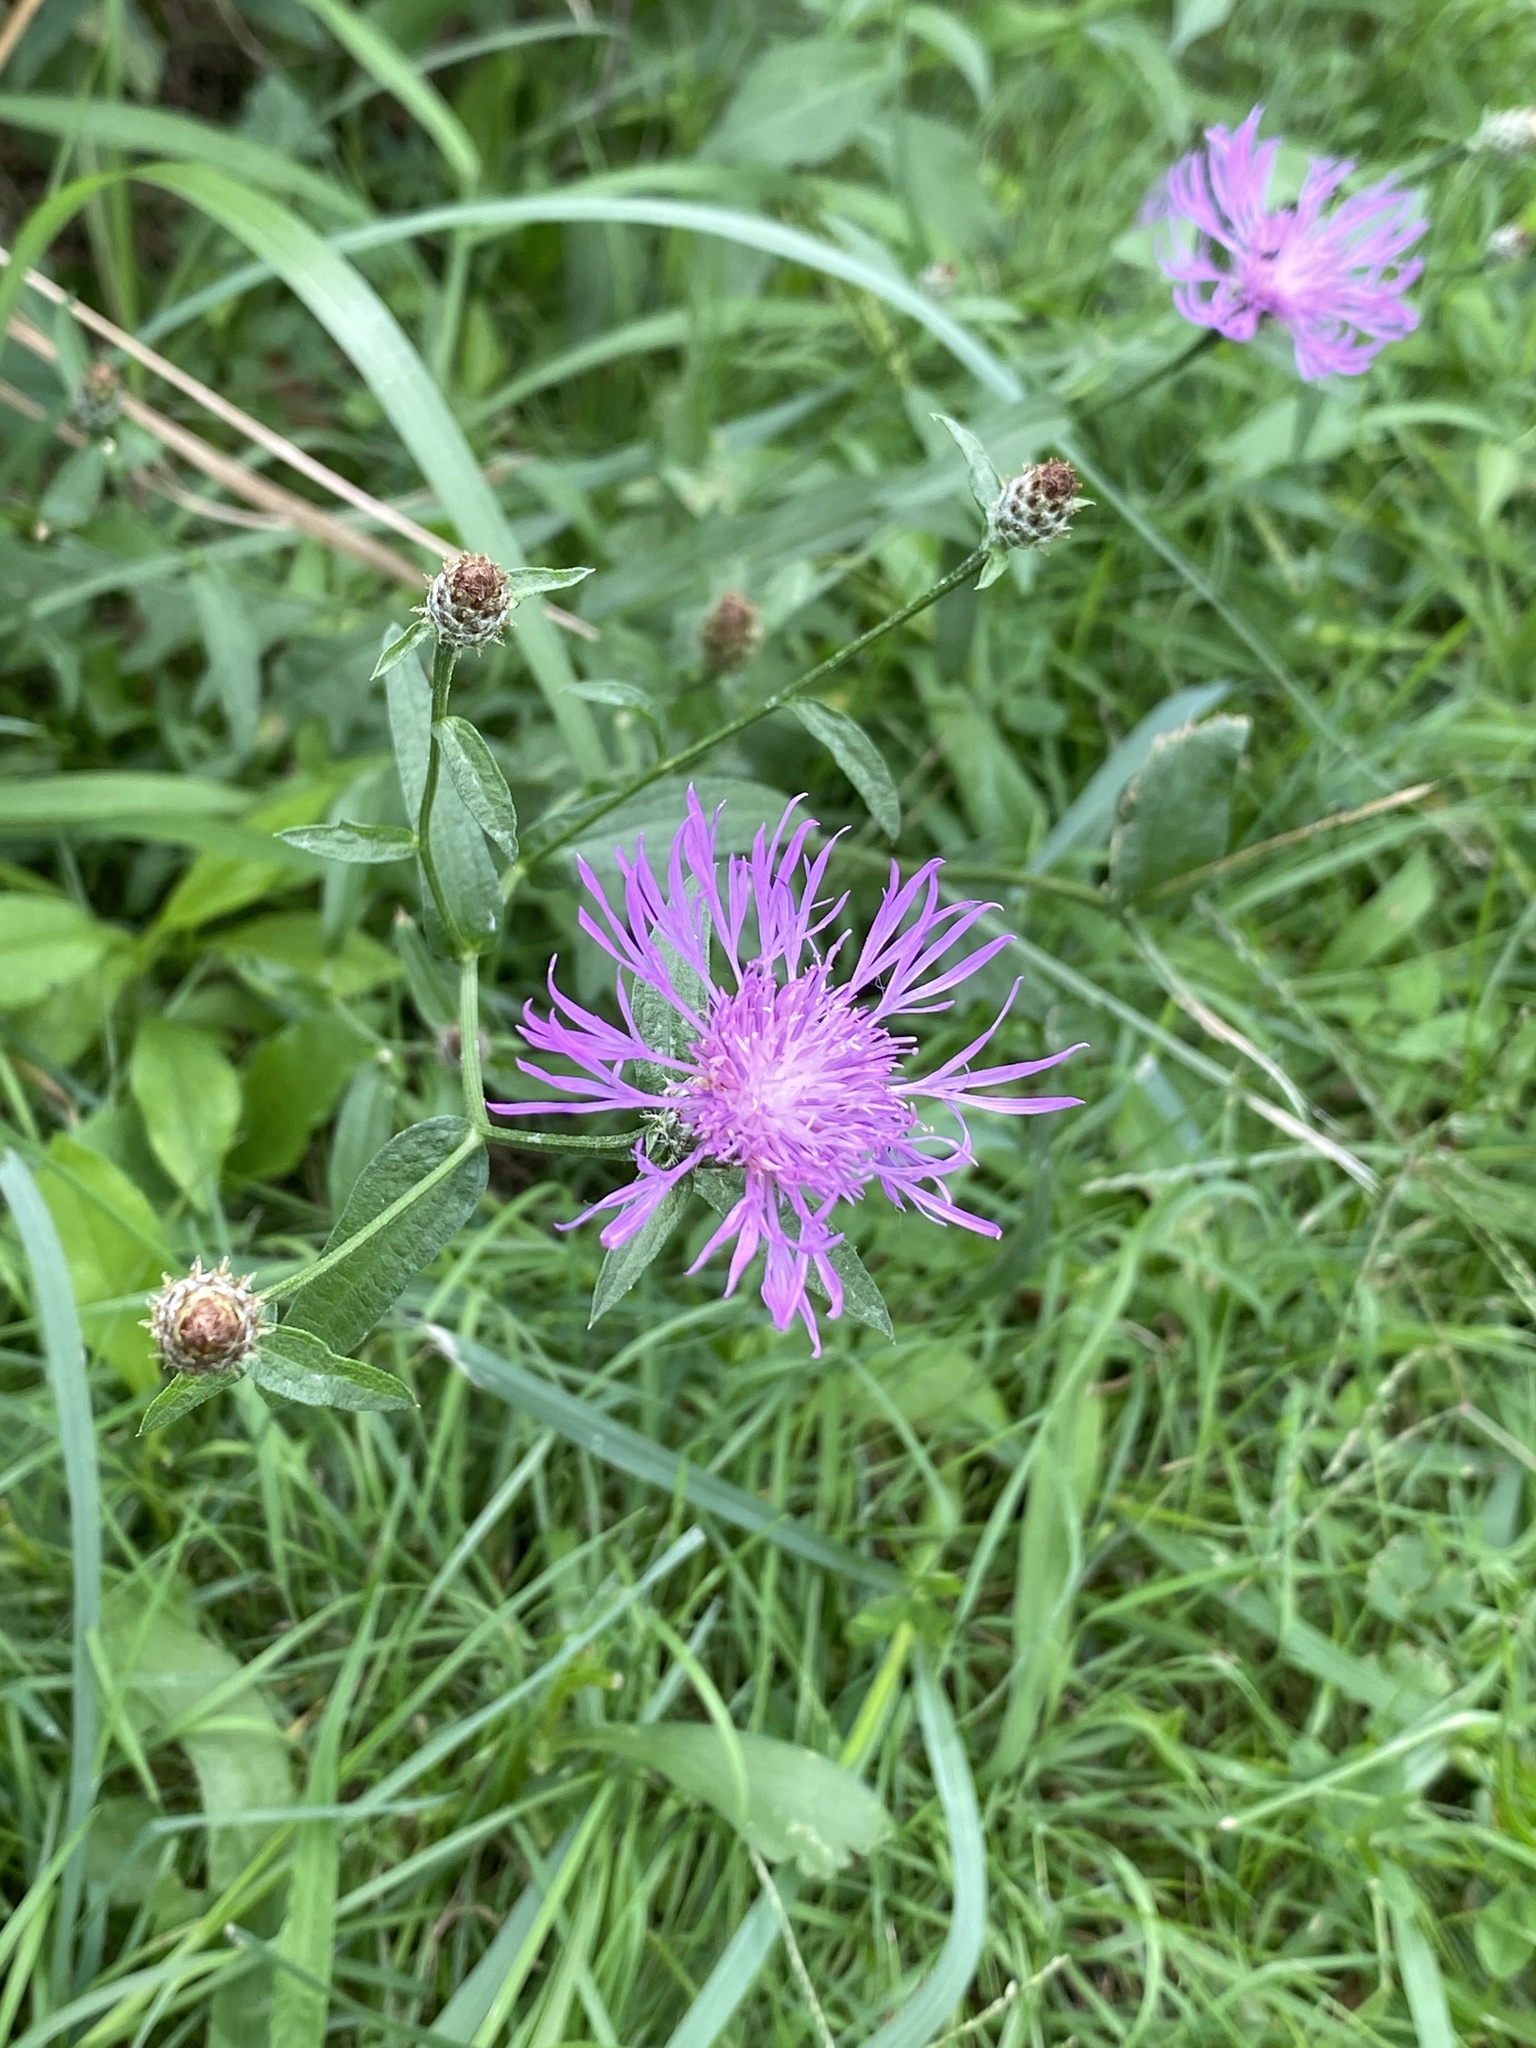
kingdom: Plantae
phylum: Tracheophyta
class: Magnoliopsida
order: Asterales
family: Asteraceae
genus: Centaurea
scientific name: Centaurea nigrescens
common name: Tyrol knapweed
